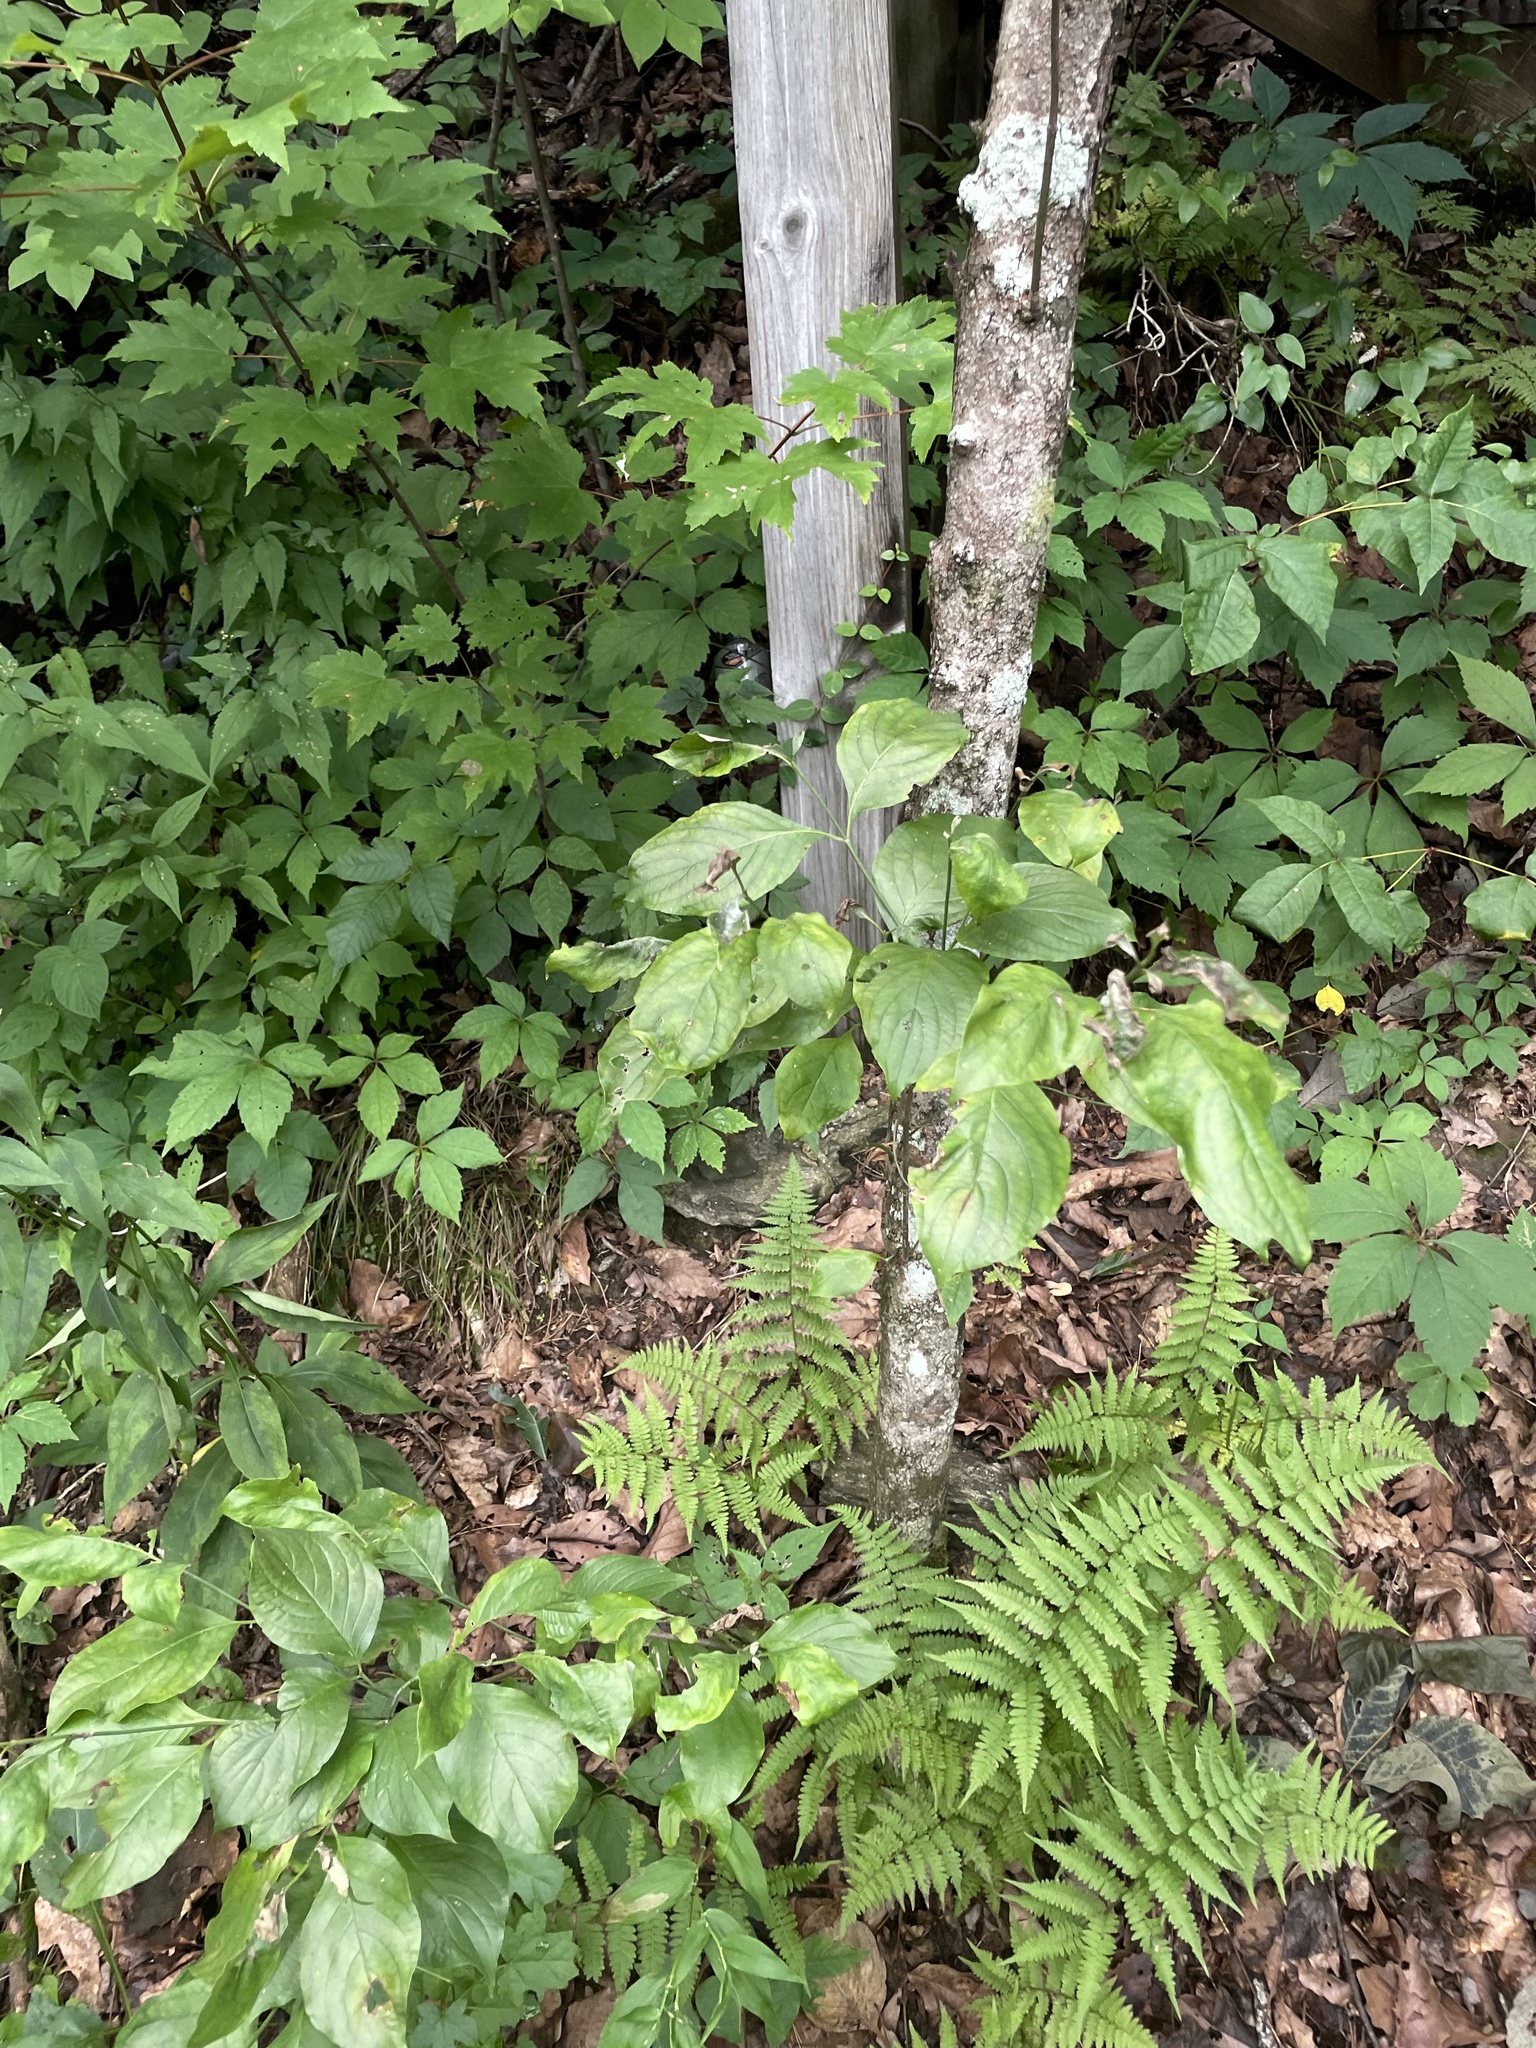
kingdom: Plantae
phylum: Tracheophyta
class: Magnoliopsida
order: Cornales
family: Cornaceae
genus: Cornus
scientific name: Cornus florida
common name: Flowering dogwood
